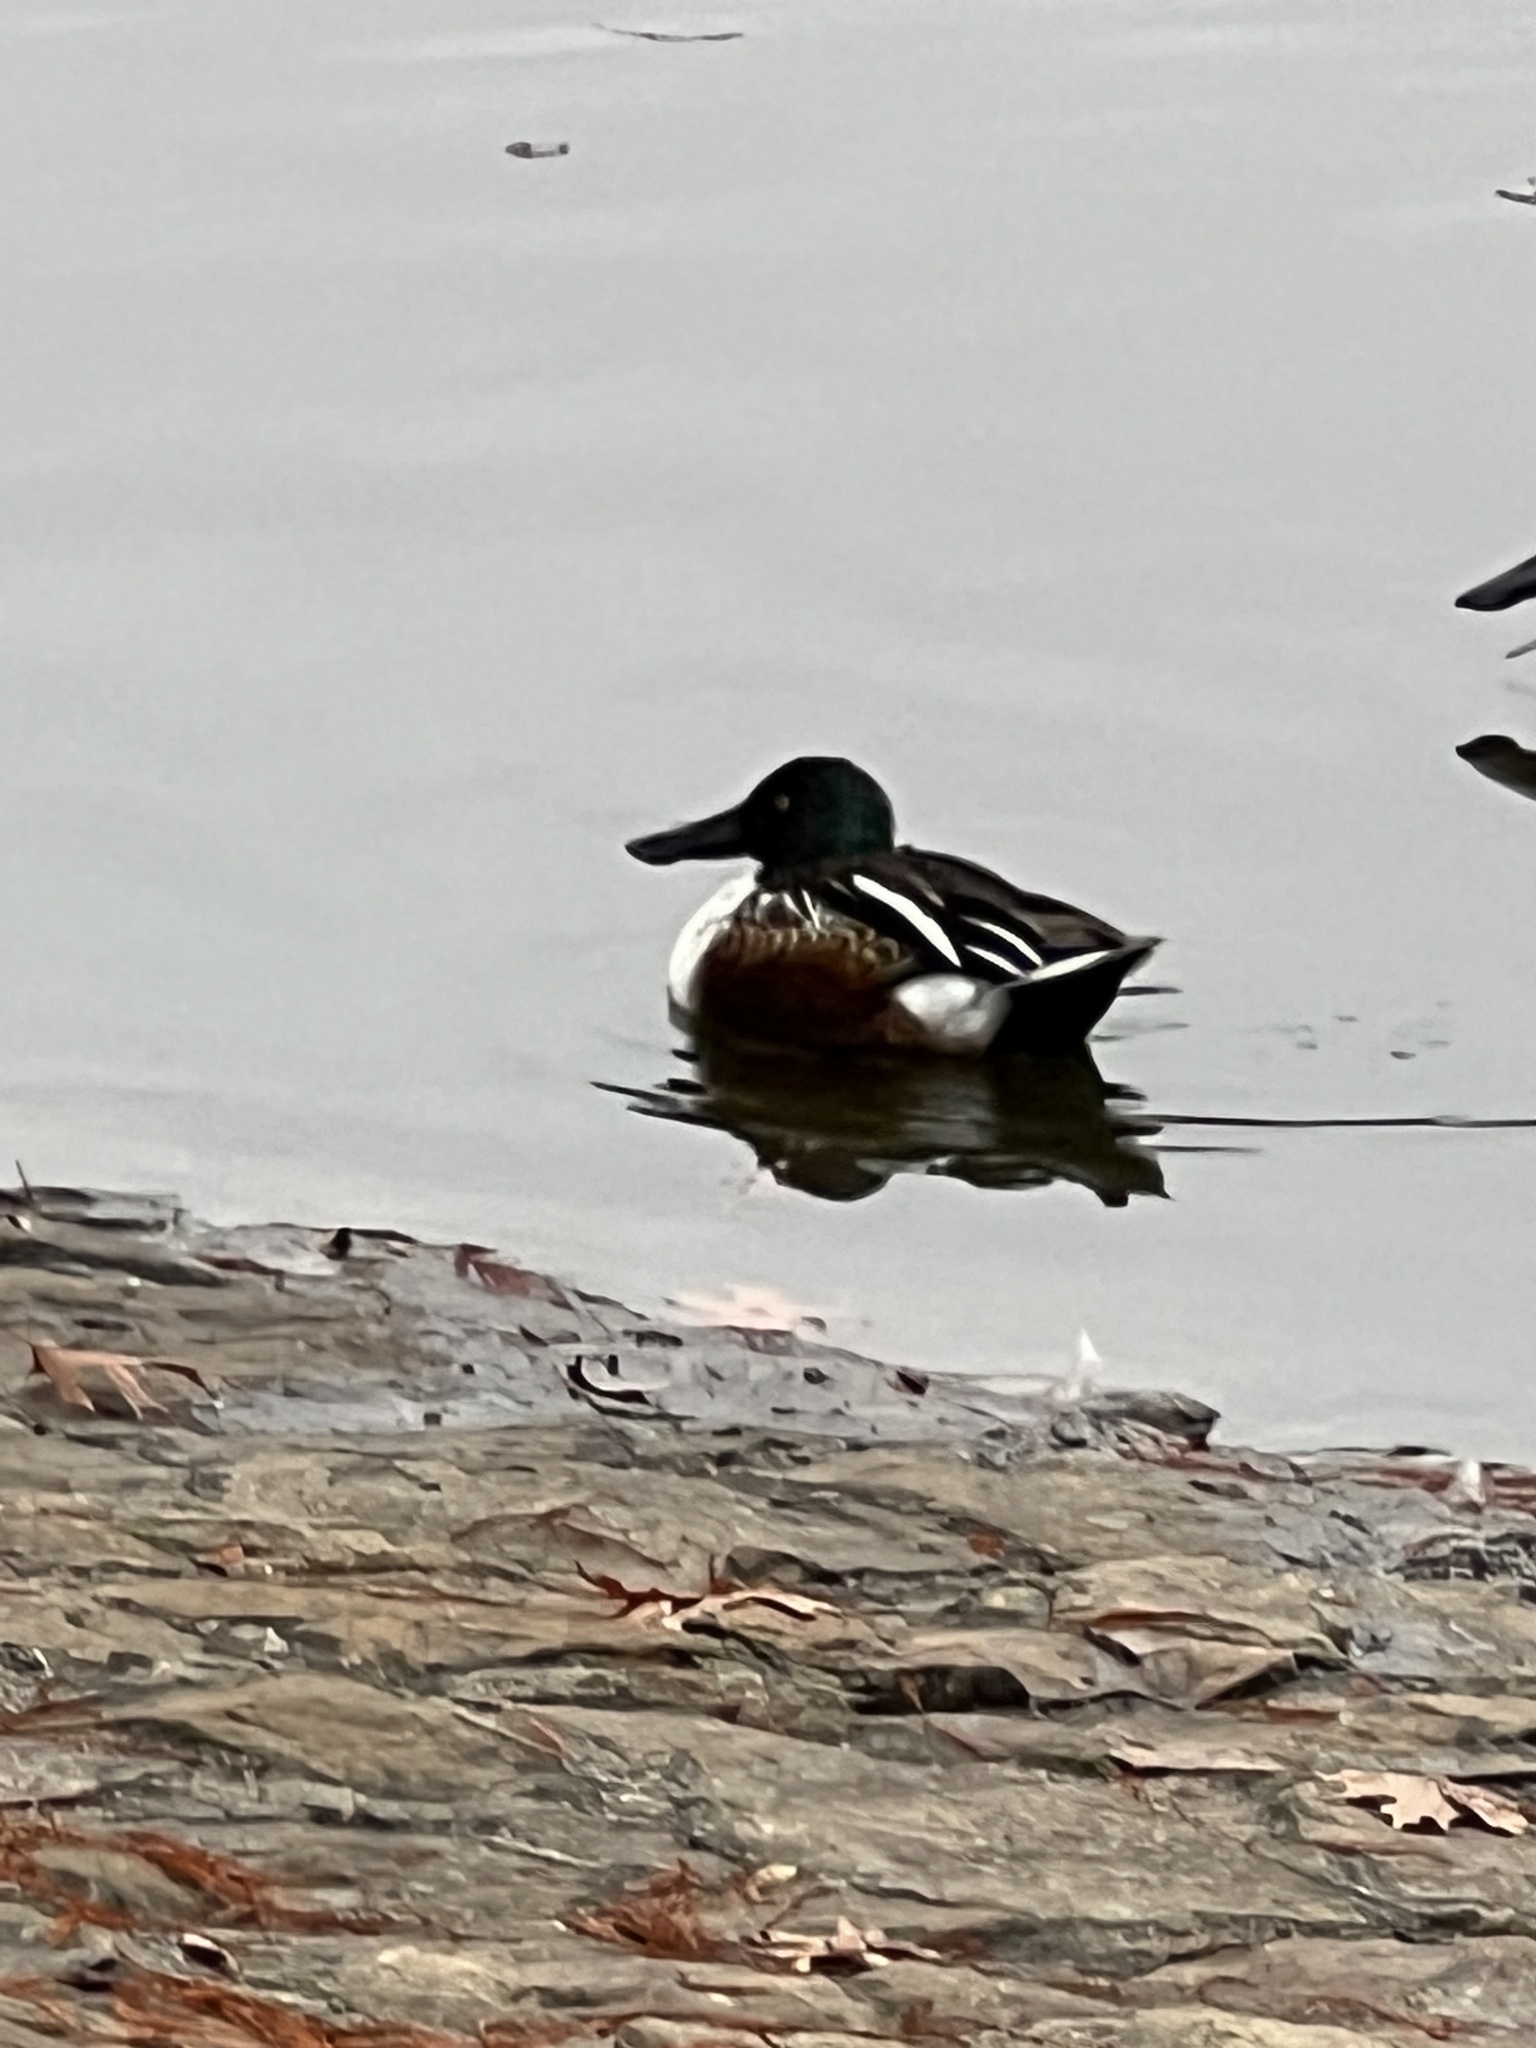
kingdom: Animalia
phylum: Chordata
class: Aves
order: Anseriformes
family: Anatidae
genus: Spatula
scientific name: Spatula clypeata
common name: Northern shoveler
